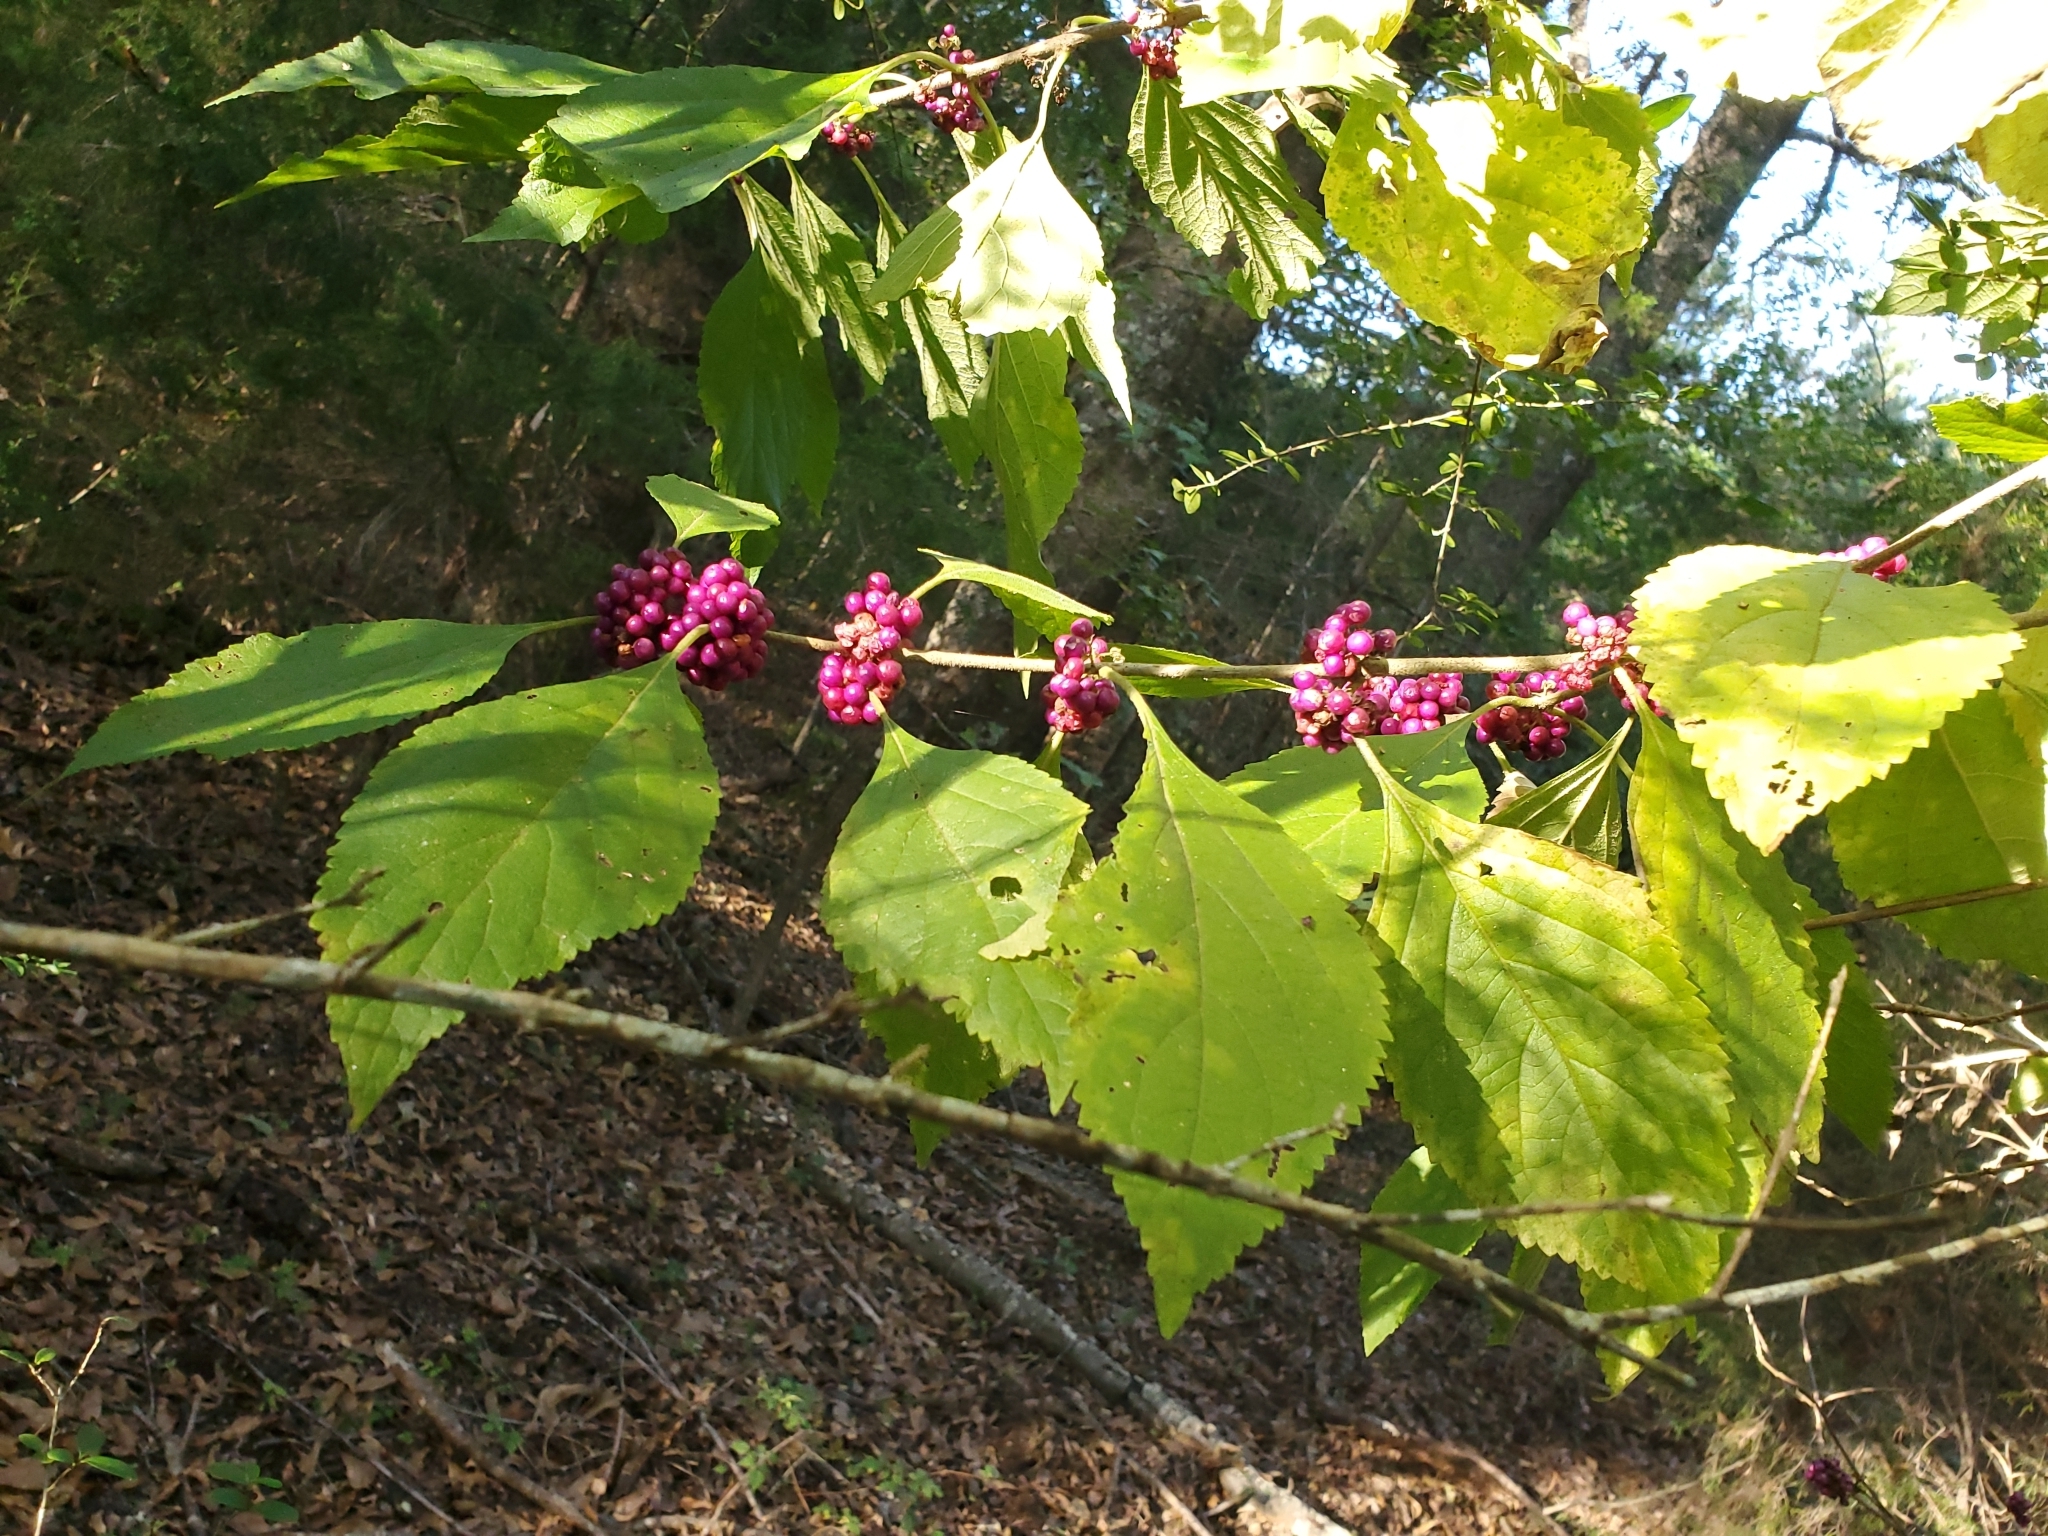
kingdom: Plantae
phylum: Tracheophyta
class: Magnoliopsida
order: Lamiales
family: Lamiaceae
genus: Callicarpa
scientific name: Callicarpa americana
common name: American beautyberry
